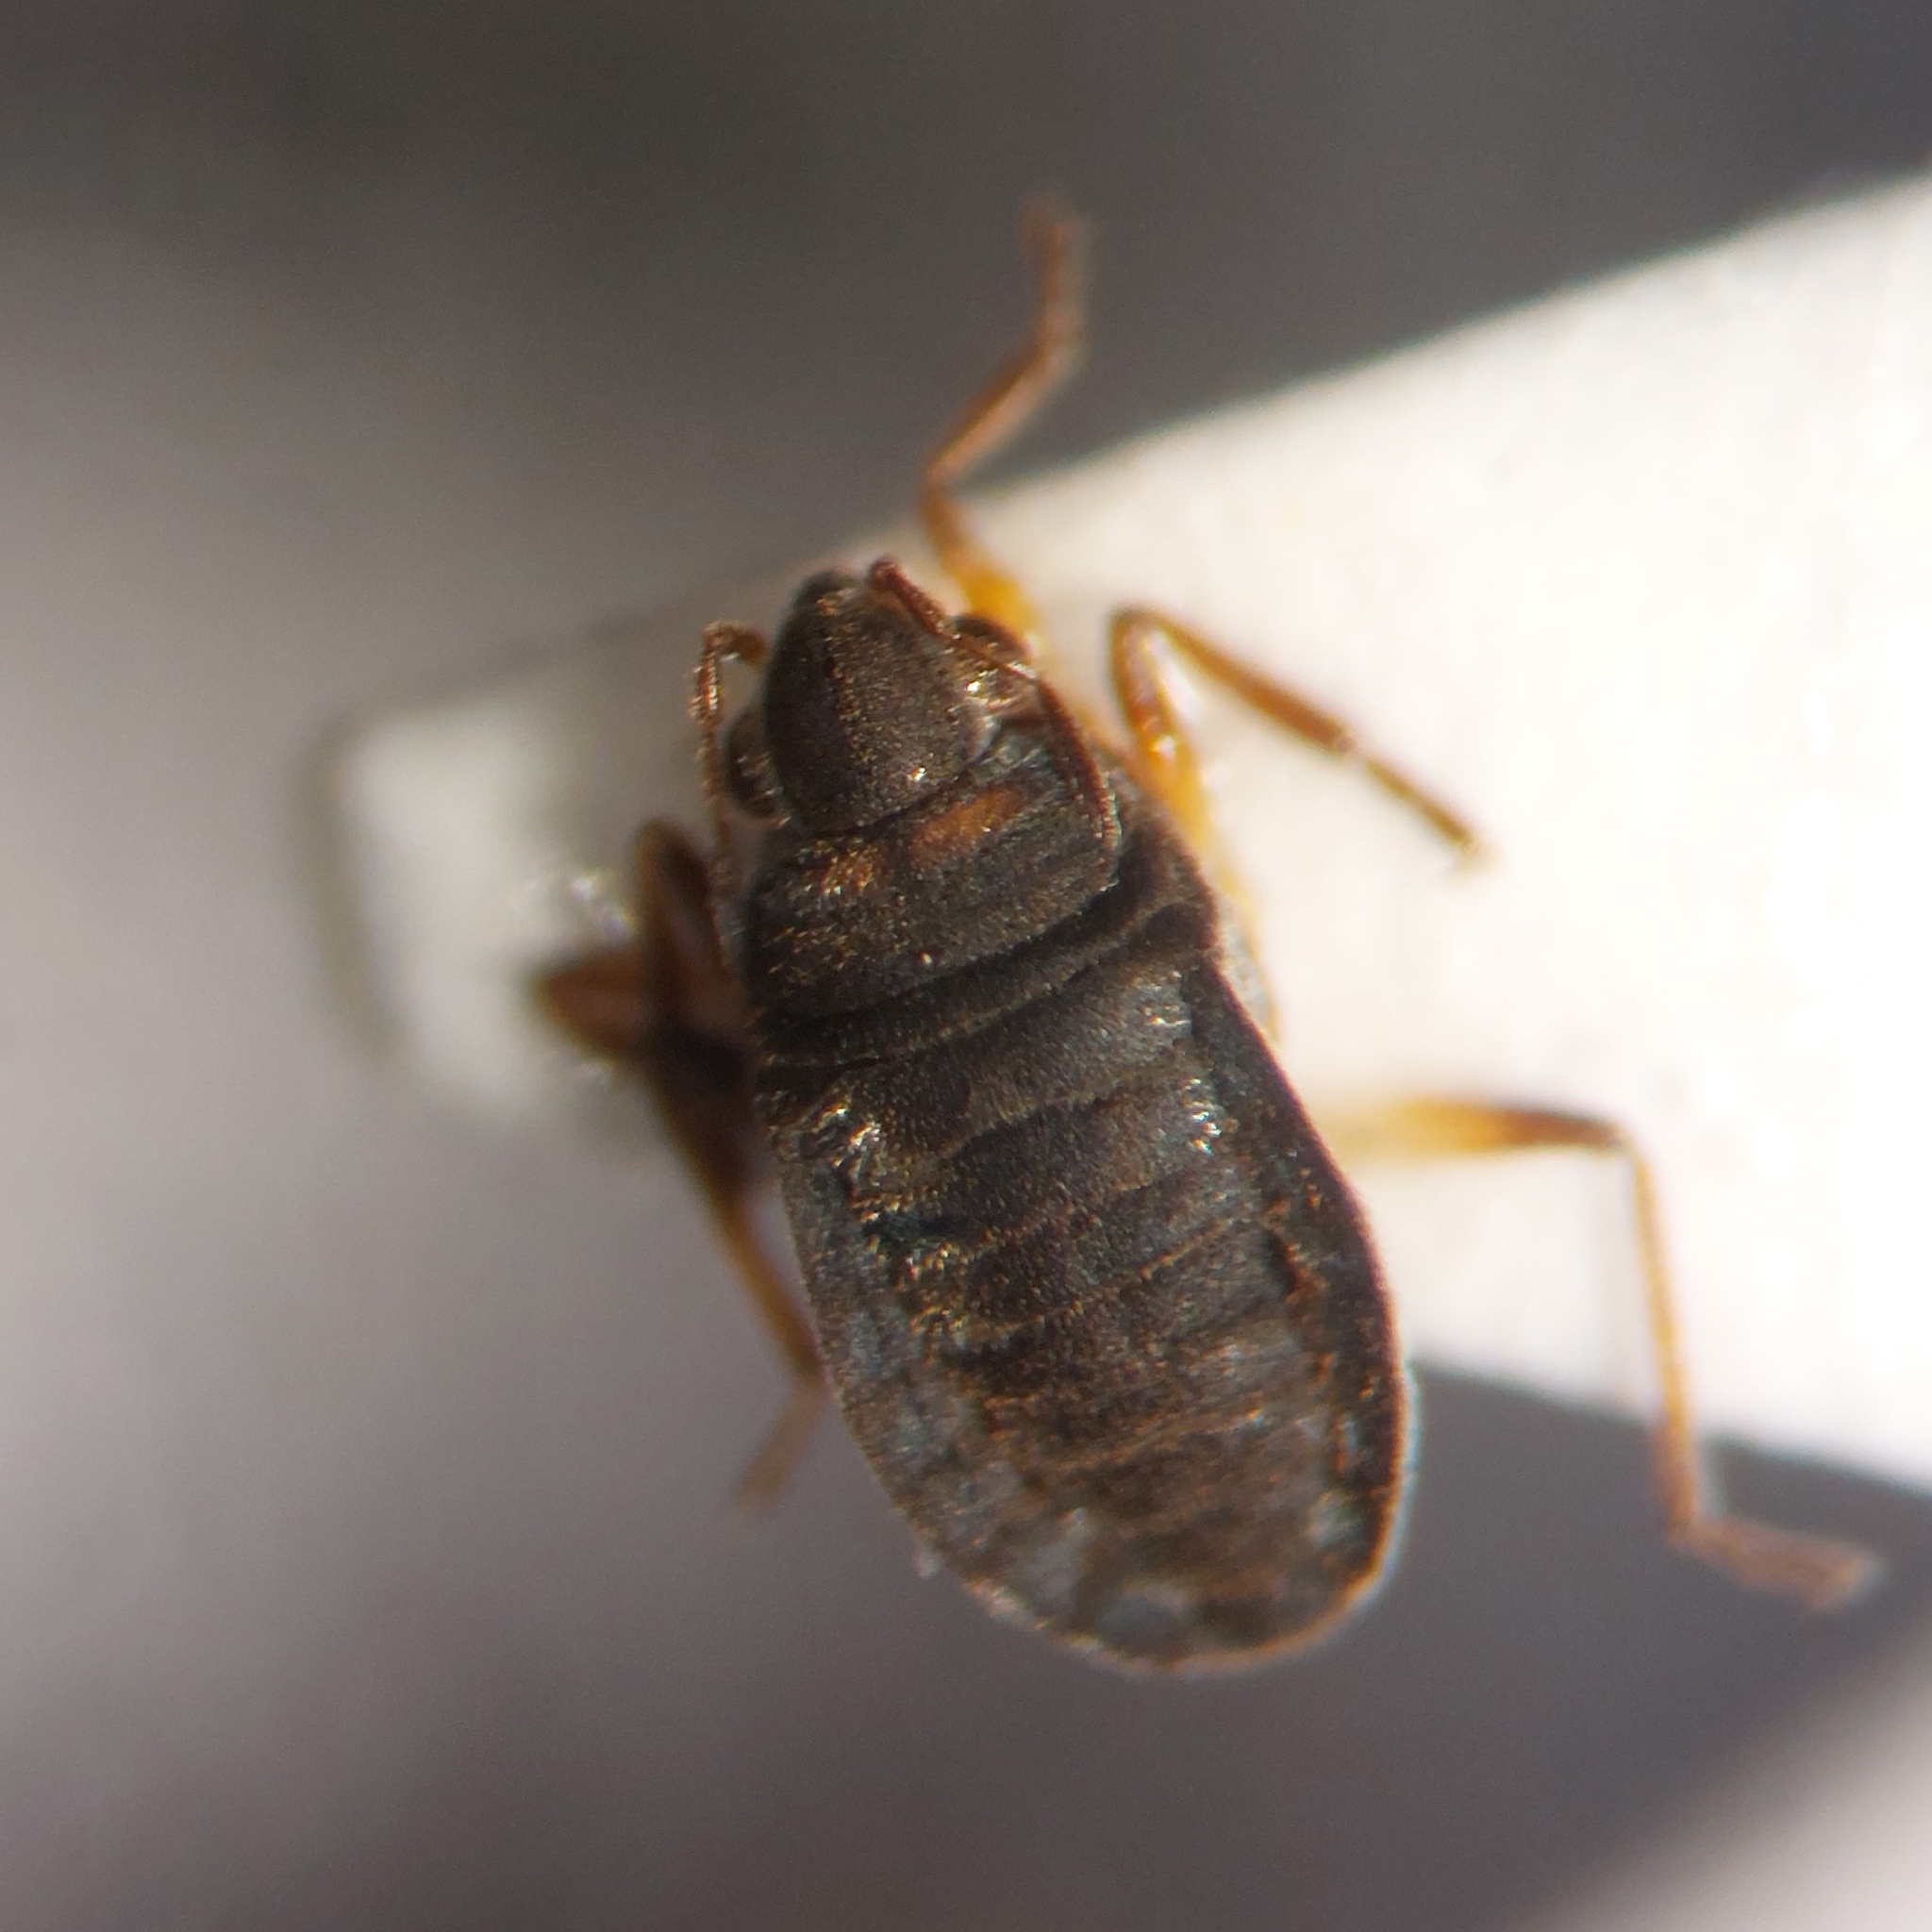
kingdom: Animalia
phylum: Arthropoda
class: Insecta
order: Hemiptera
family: Veliidae
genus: Microvelia
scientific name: Microvelia reticulata
